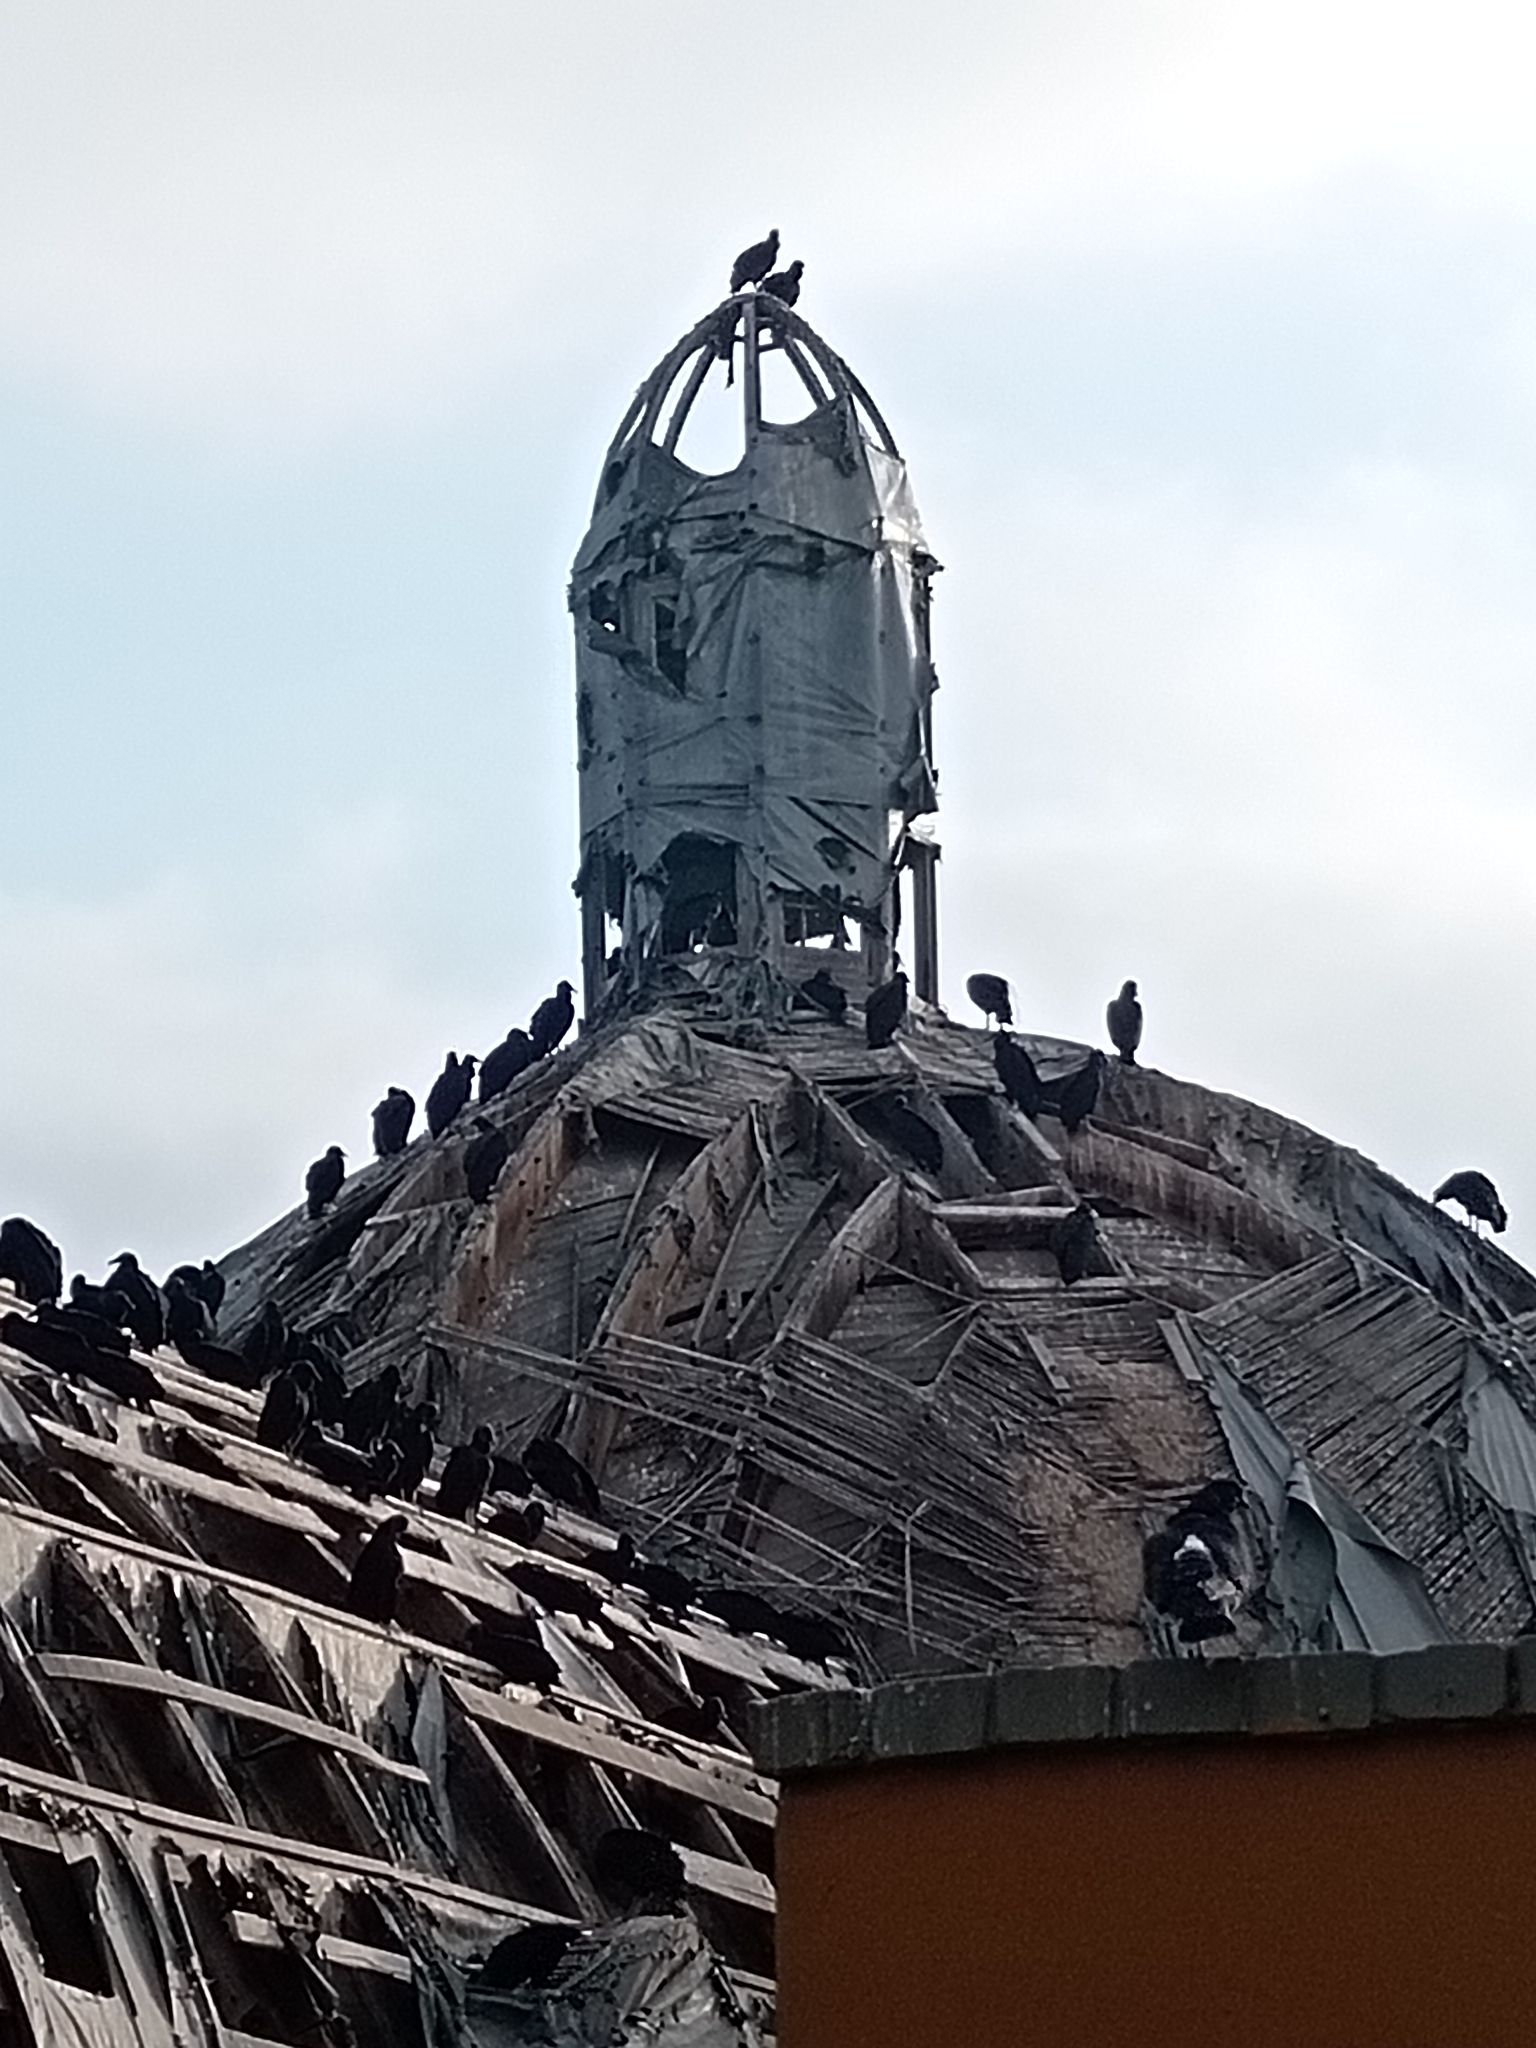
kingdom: Animalia
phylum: Chordata
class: Aves
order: Accipitriformes
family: Cathartidae
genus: Coragyps
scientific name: Coragyps atratus
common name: Black vulture
